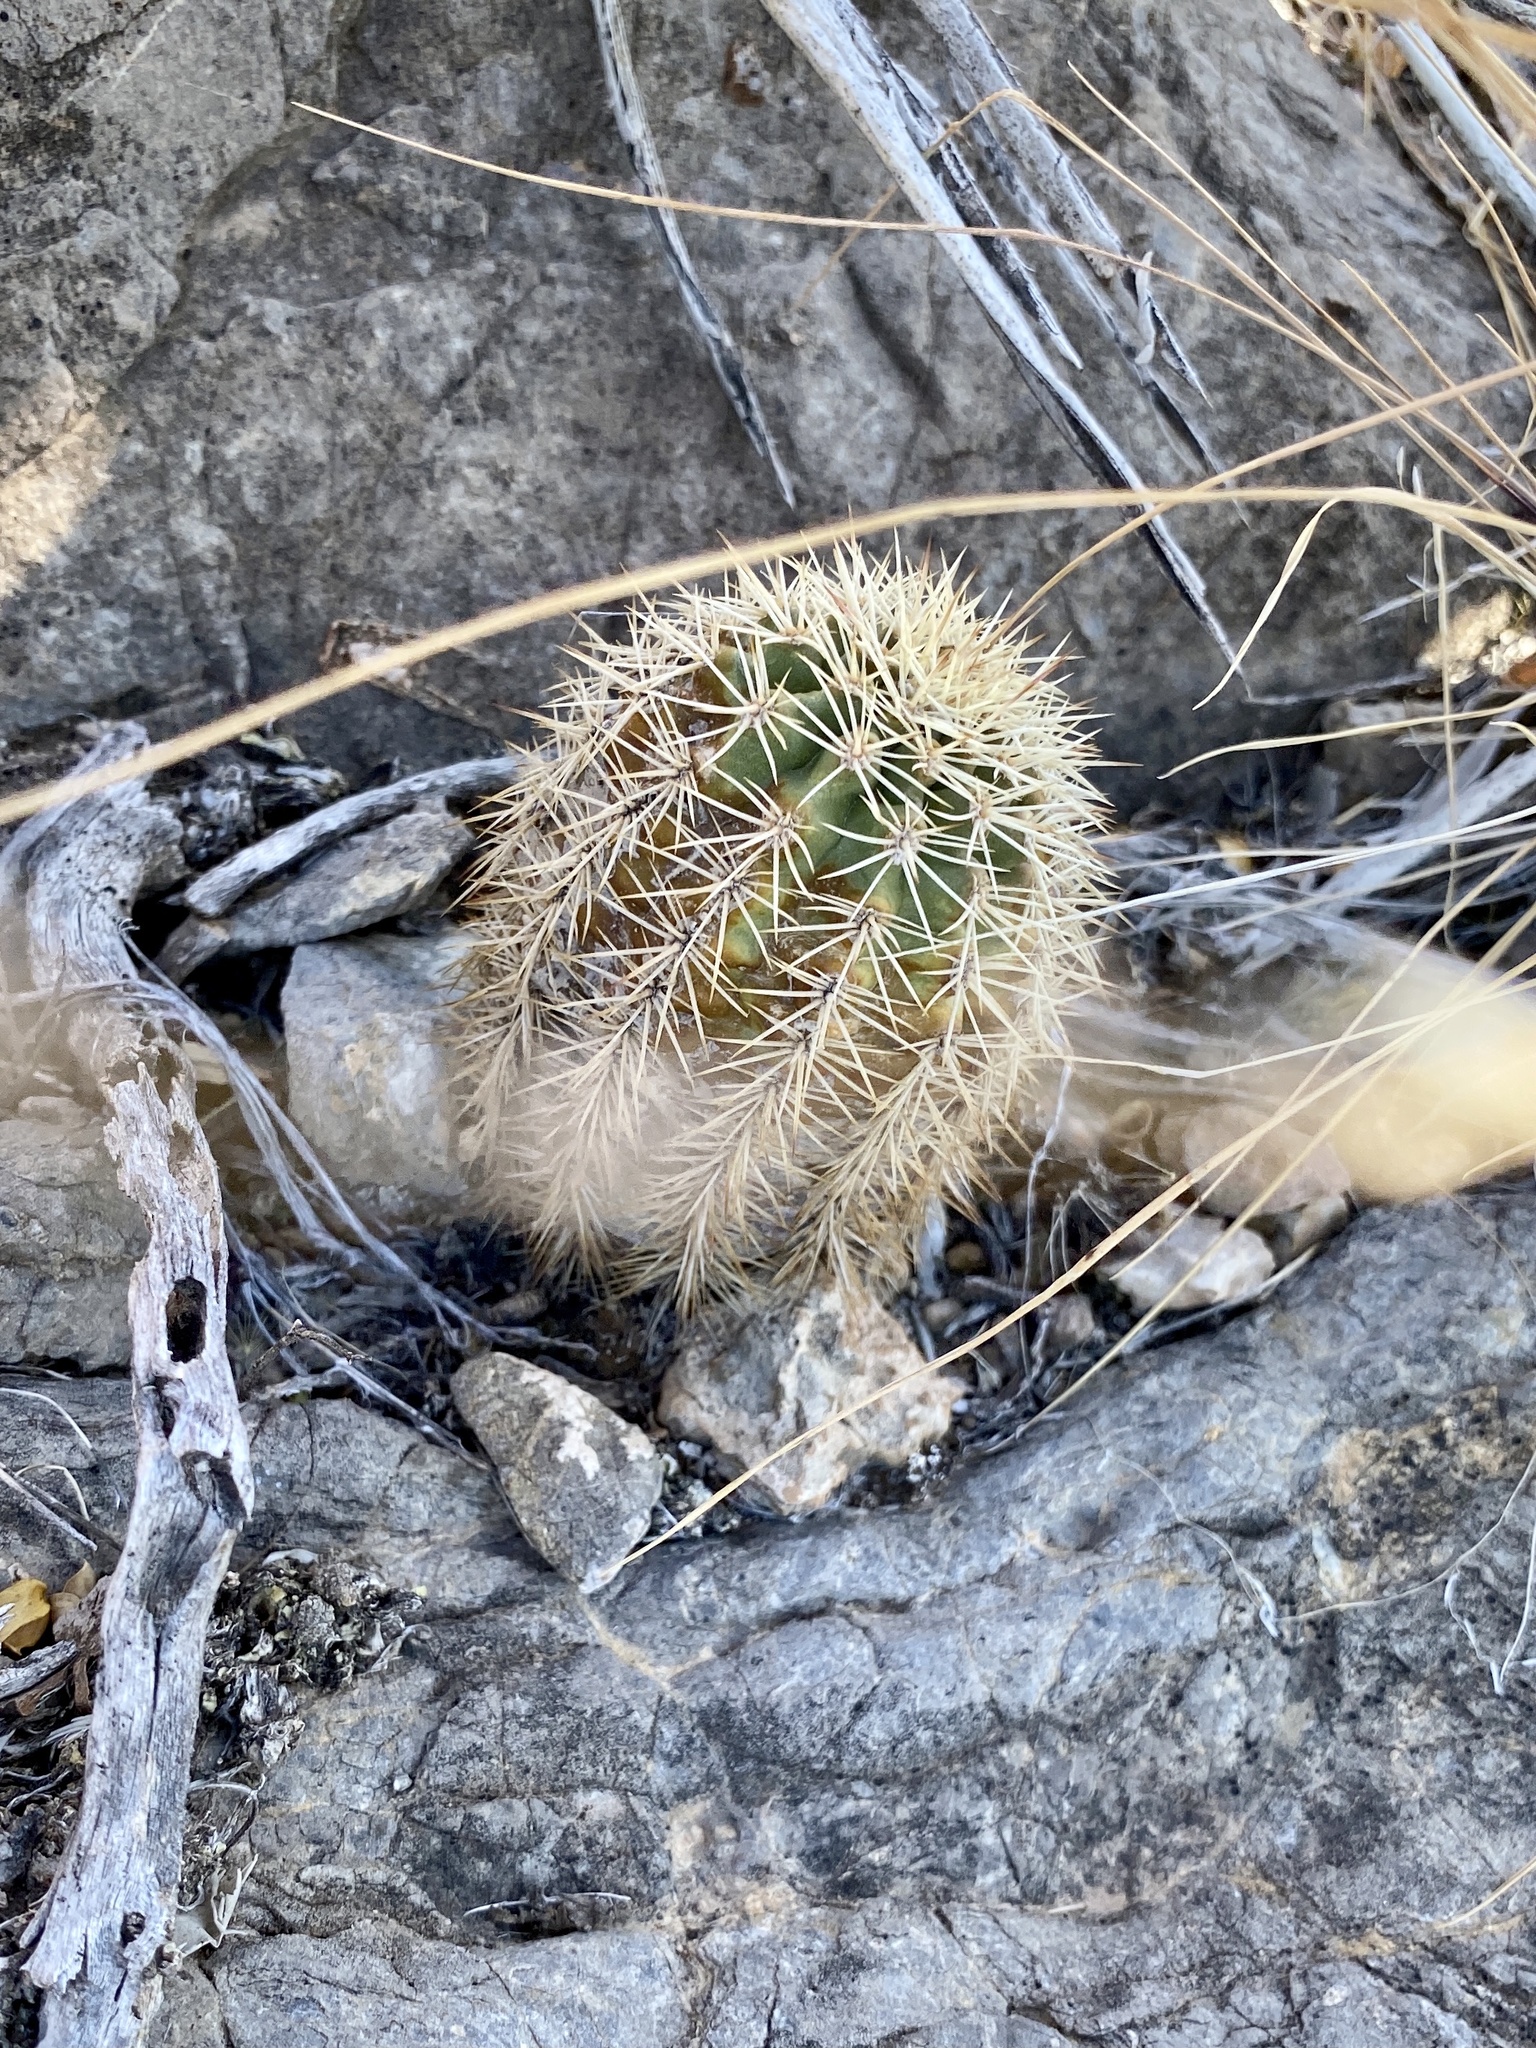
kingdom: Plantae
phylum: Tracheophyta
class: Magnoliopsida
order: Caryophyllales
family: Cactaceae
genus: Echinocereus
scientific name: Echinocereus coccineus
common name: Scarlet hedgehog cactus
